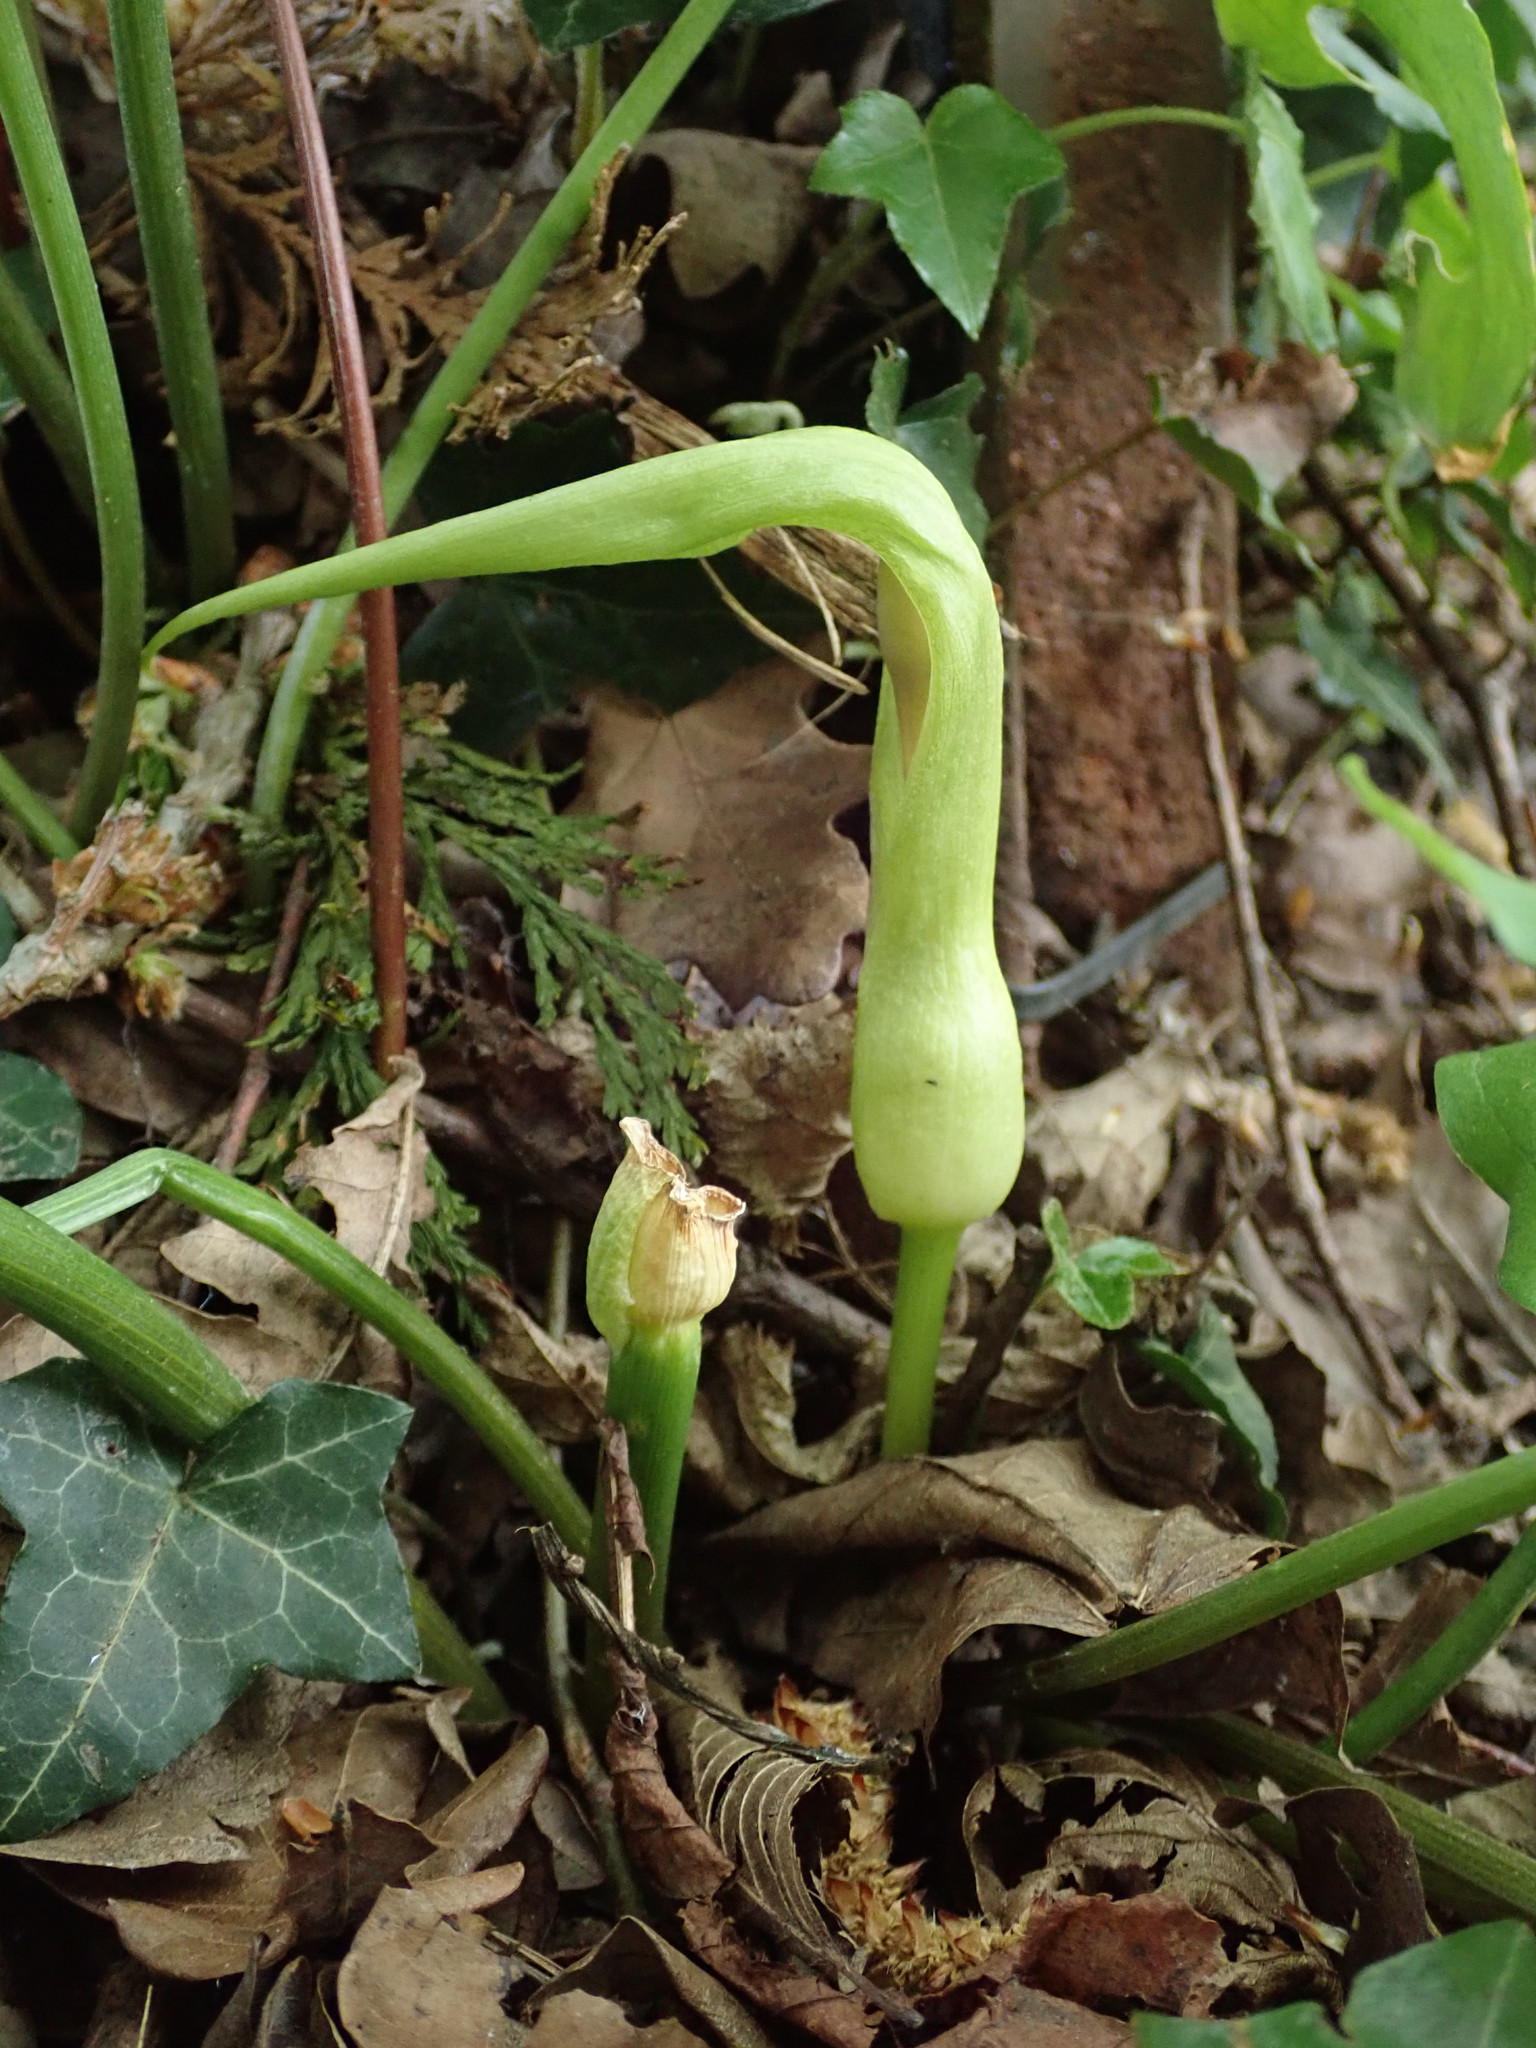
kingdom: Plantae
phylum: Tracheophyta
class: Liliopsida
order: Alismatales
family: Araceae
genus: Arum
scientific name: Arum maculatum
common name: Lords-and-ladies
